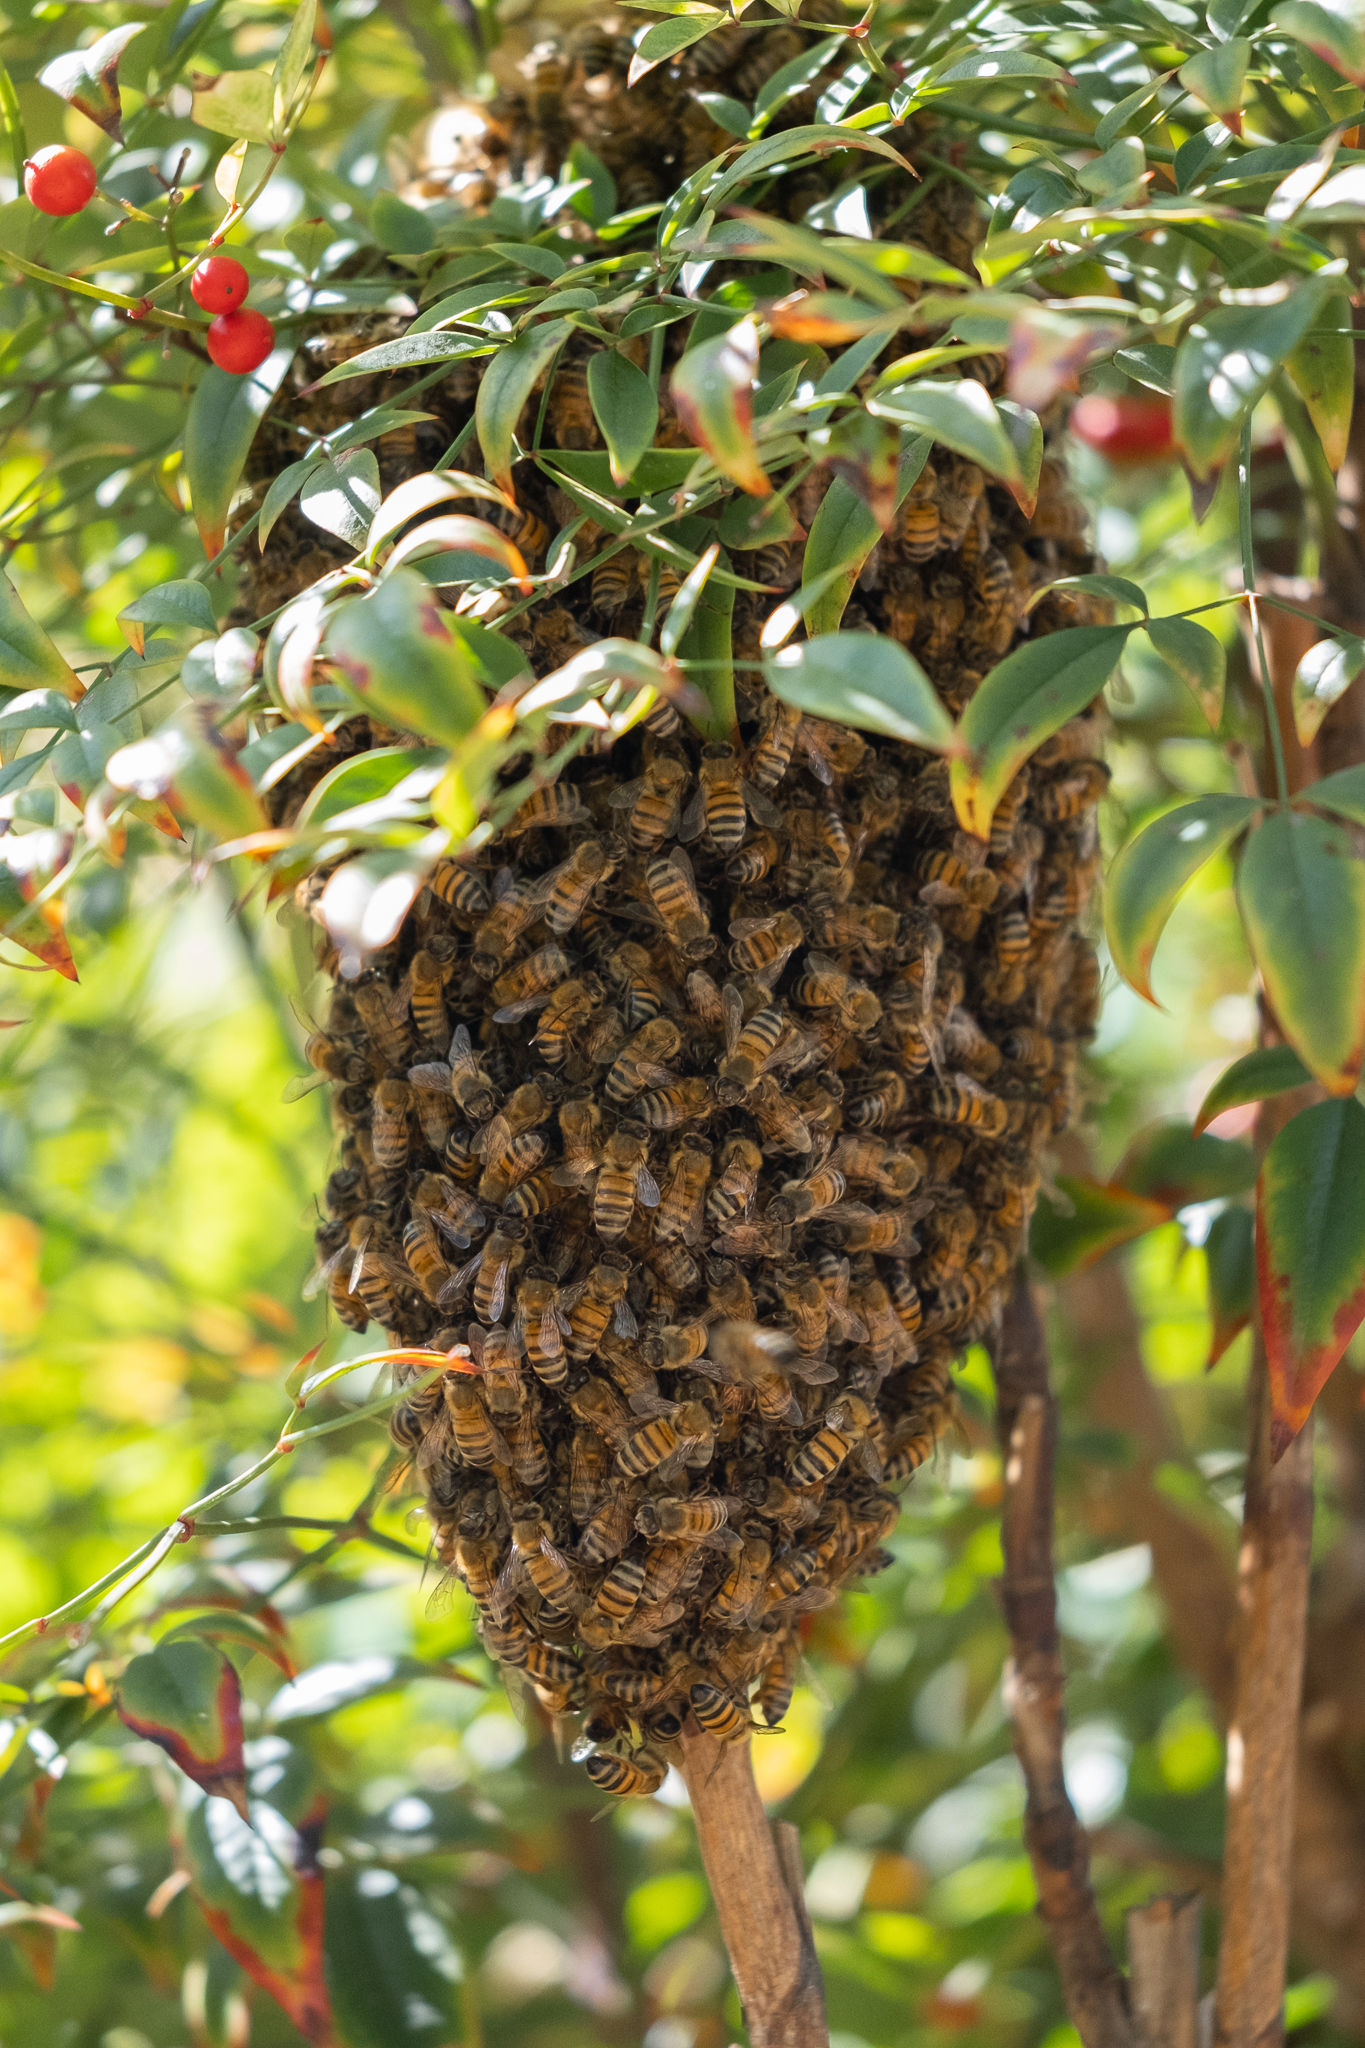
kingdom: Animalia
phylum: Arthropoda
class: Insecta
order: Hymenoptera
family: Apidae
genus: Apis
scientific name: Apis mellifera
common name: Honey bee
